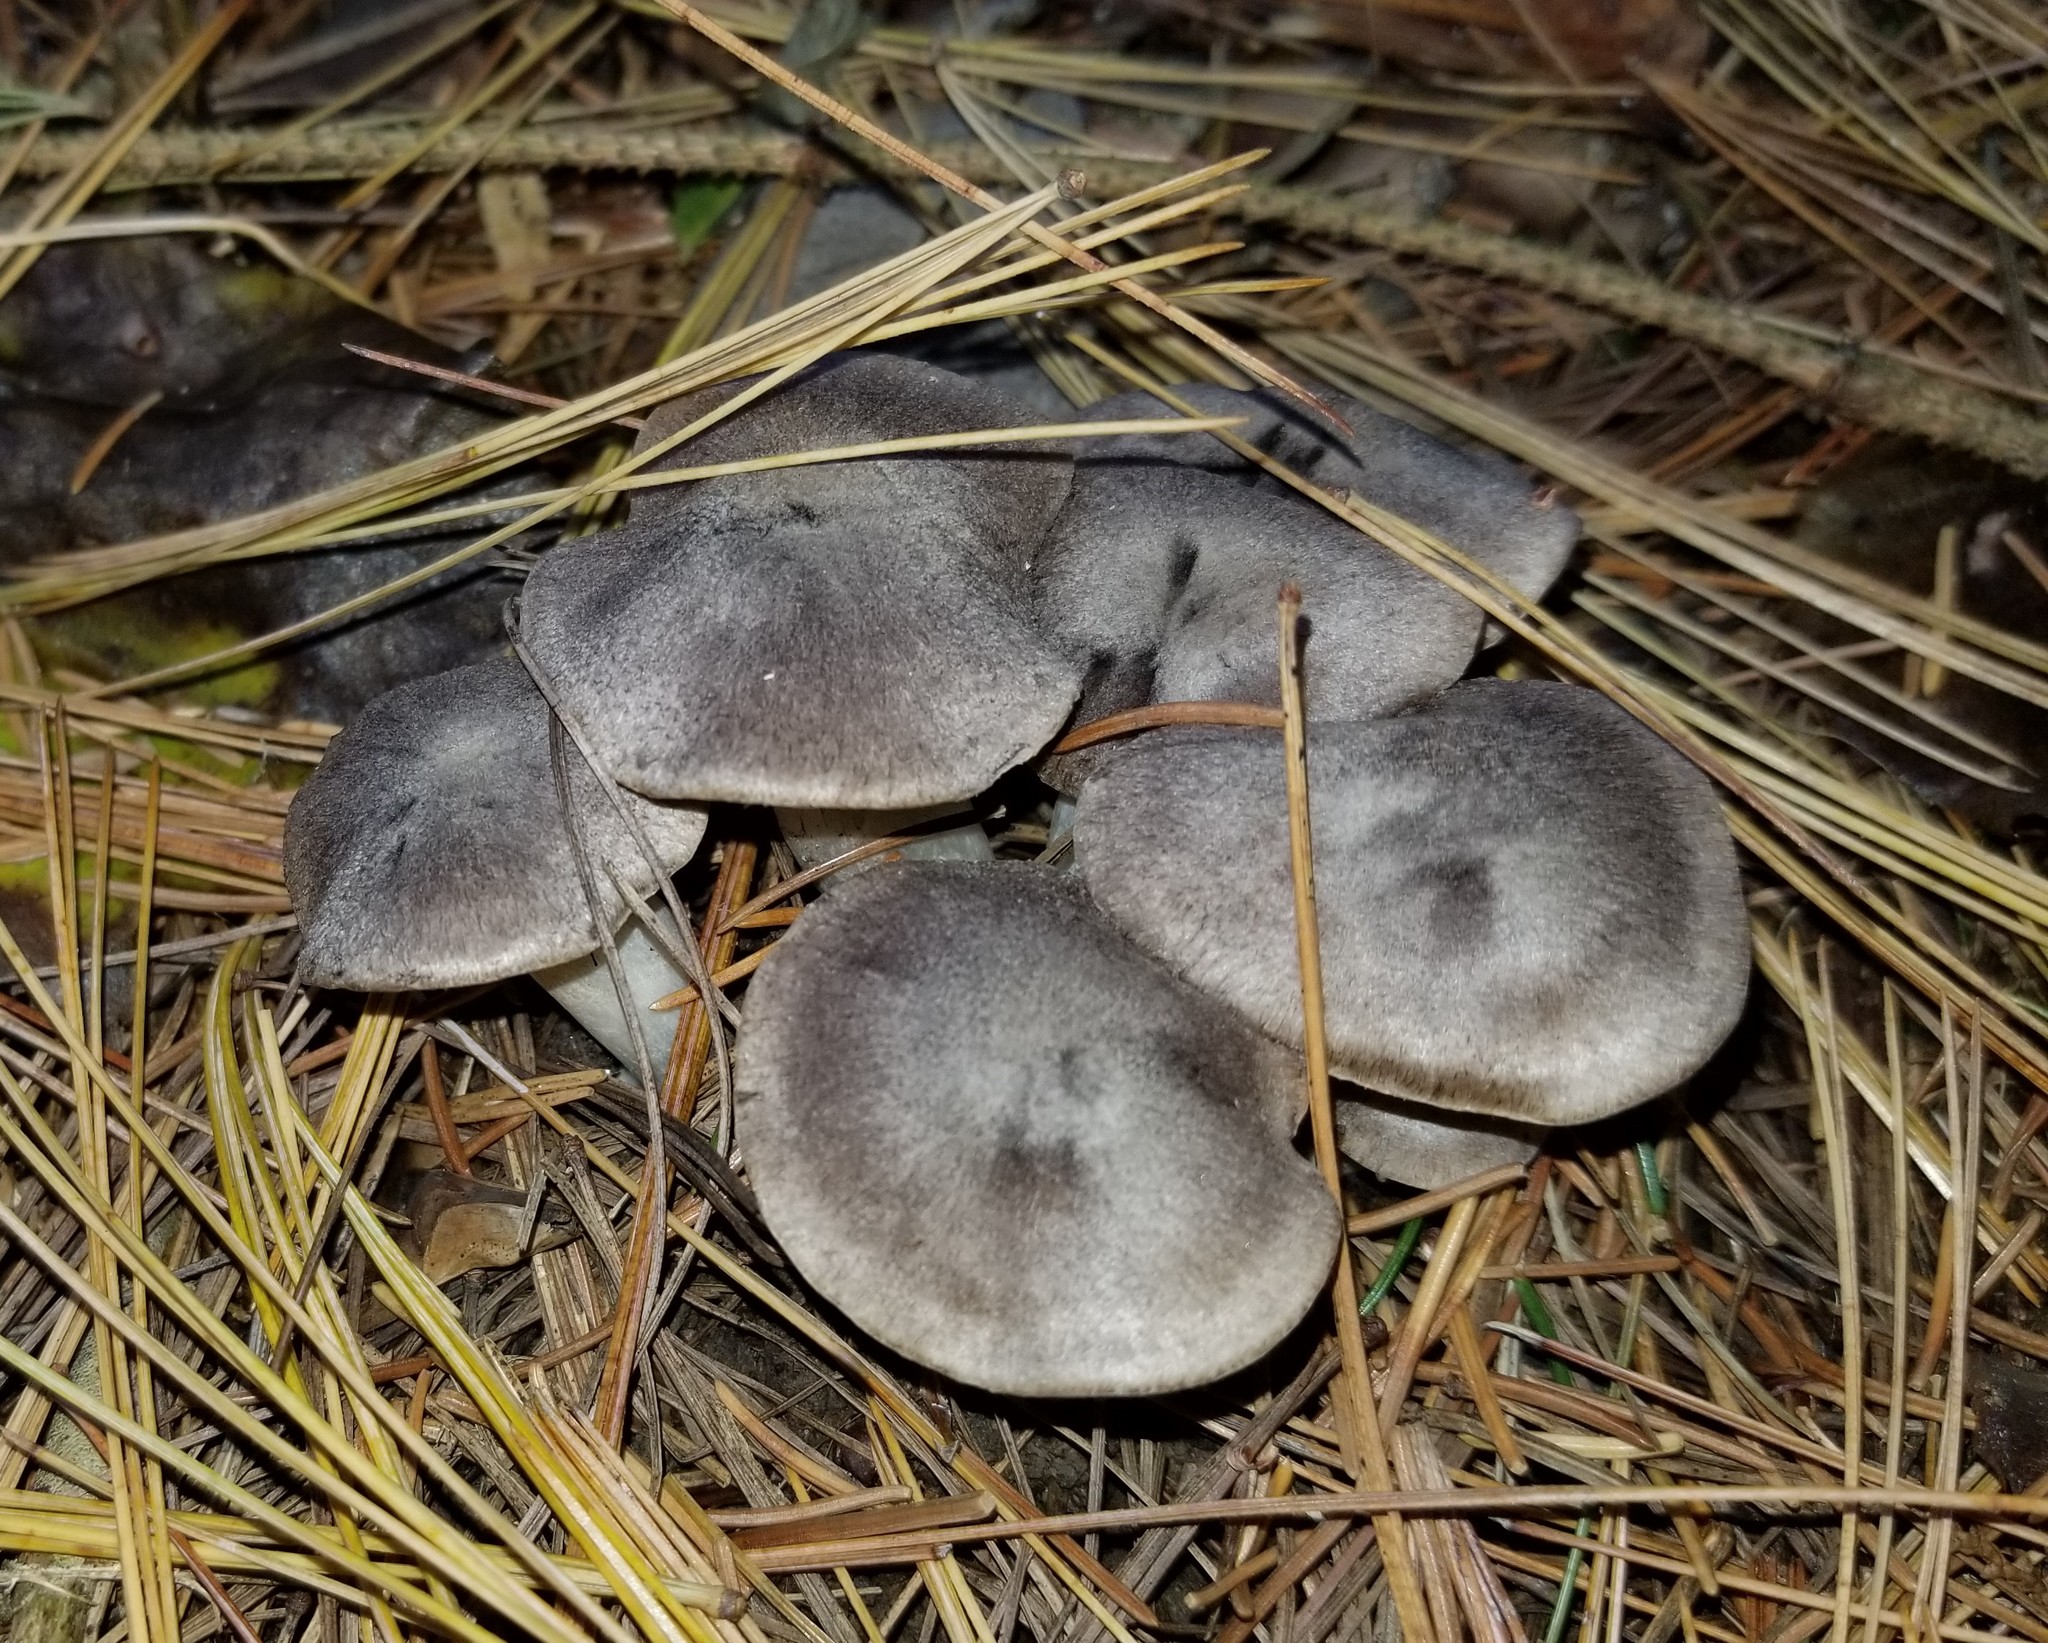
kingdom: Fungi
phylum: Basidiomycota
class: Agaricomycetes
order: Agaricales
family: Tricholomataceae
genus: Tricholoma
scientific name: Tricholoma terreum
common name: Grey knight
